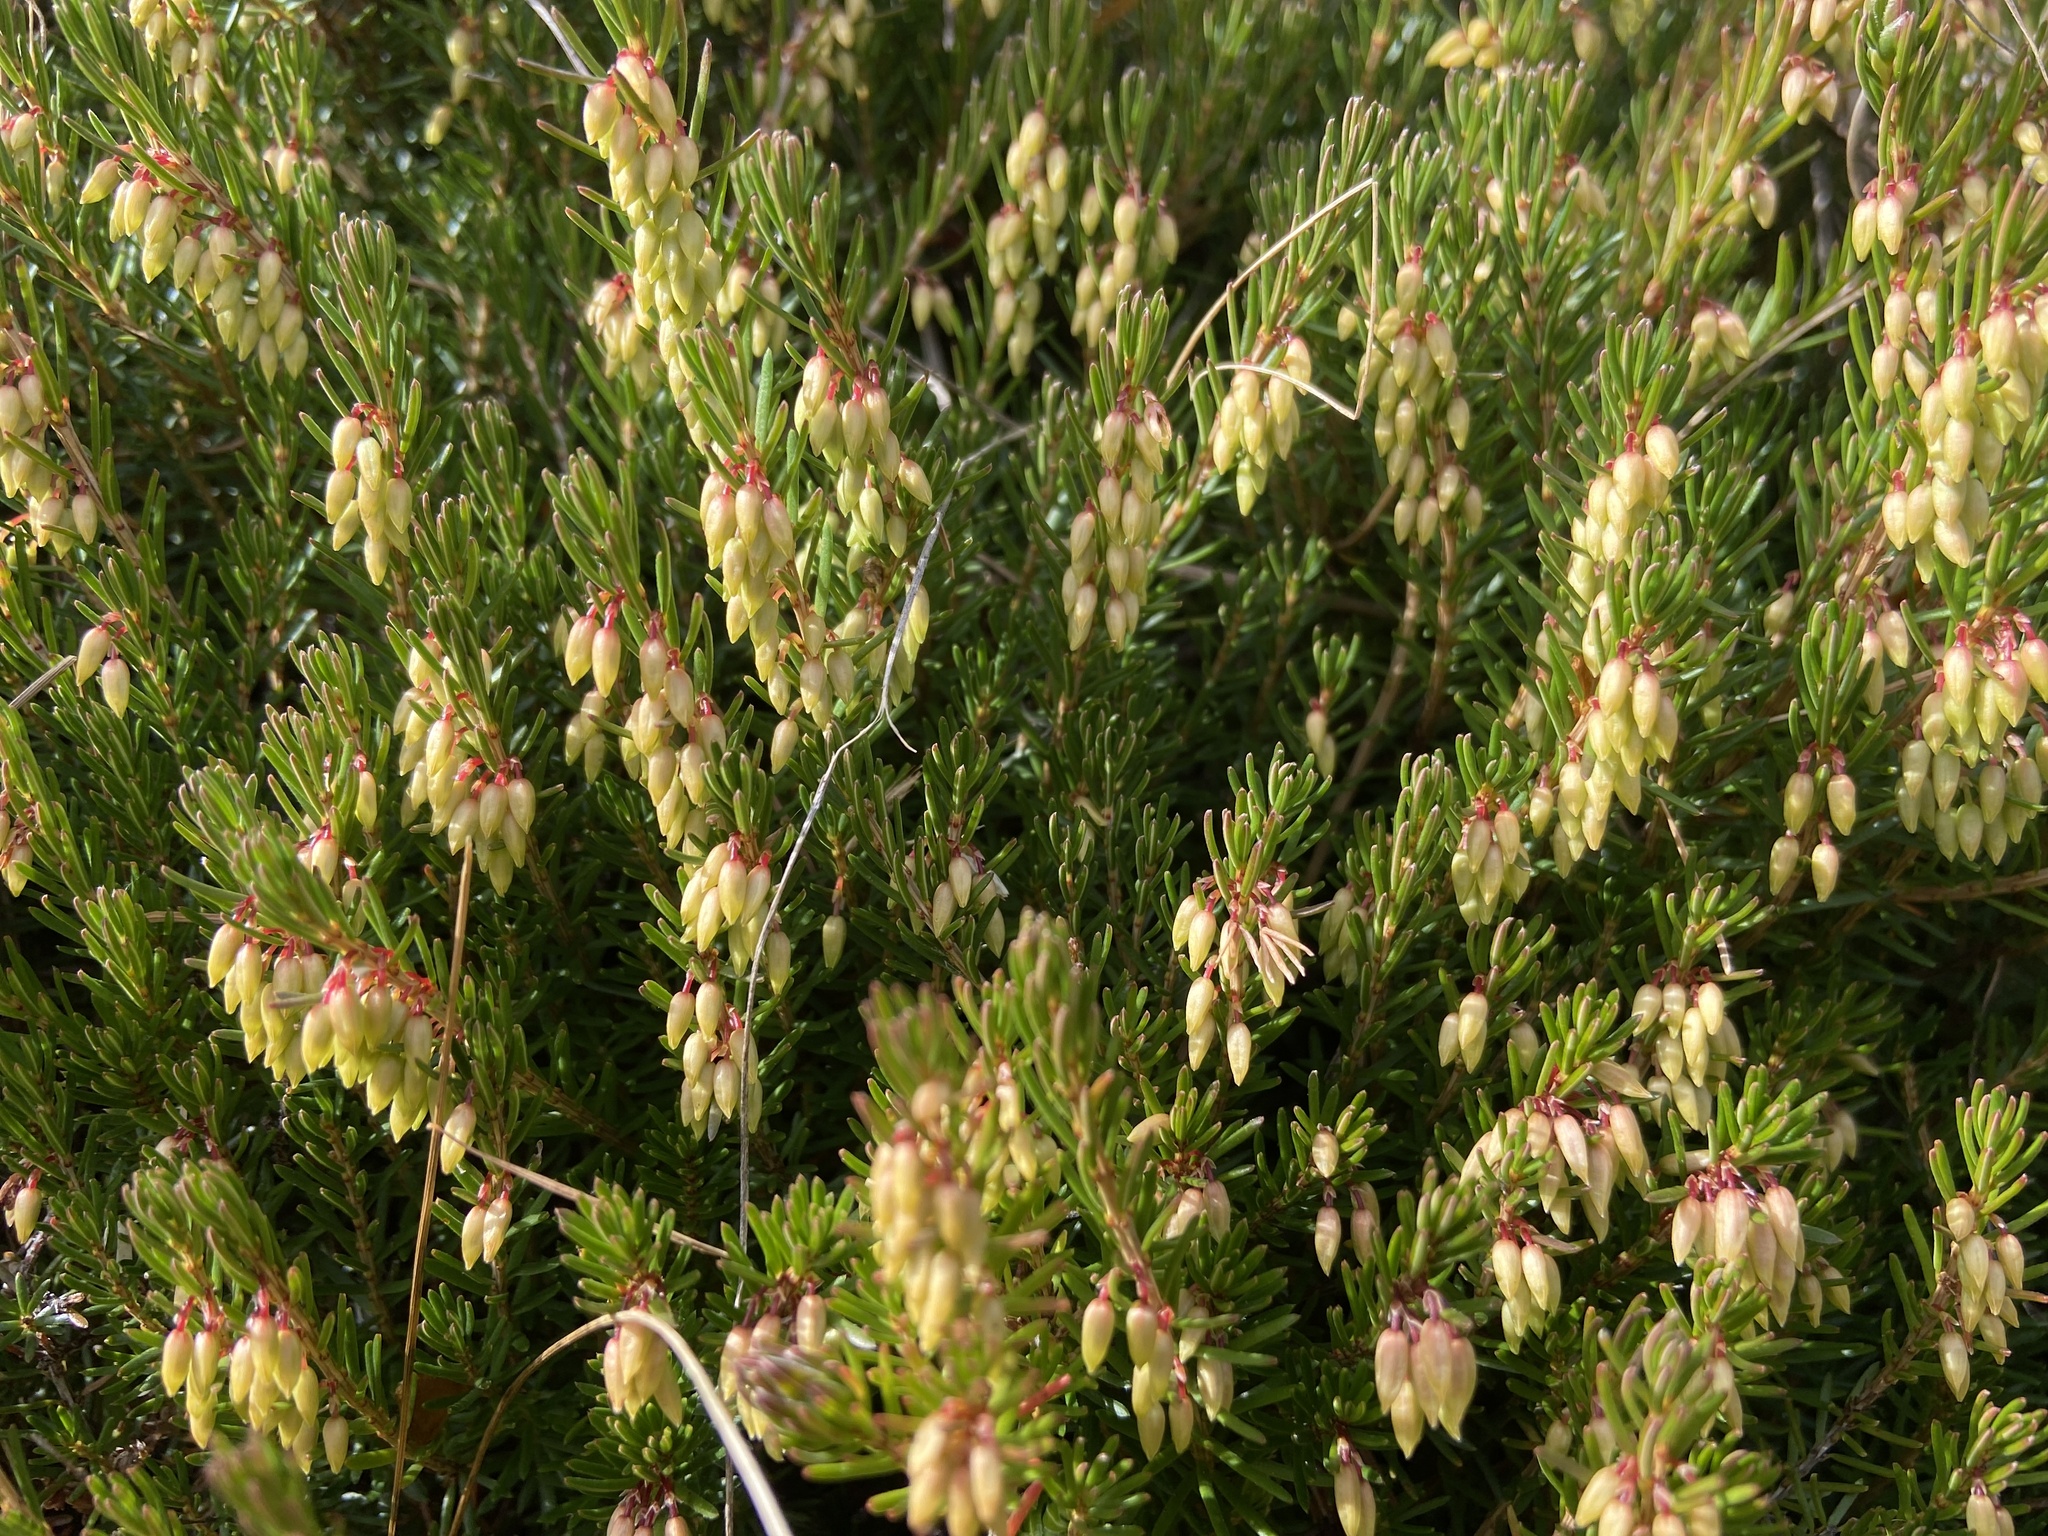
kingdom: Plantae
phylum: Tracheophyta
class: Magnoliopsida
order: Ericales
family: Ericaceae
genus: Erica
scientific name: Erica carnea
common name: Winter heath
